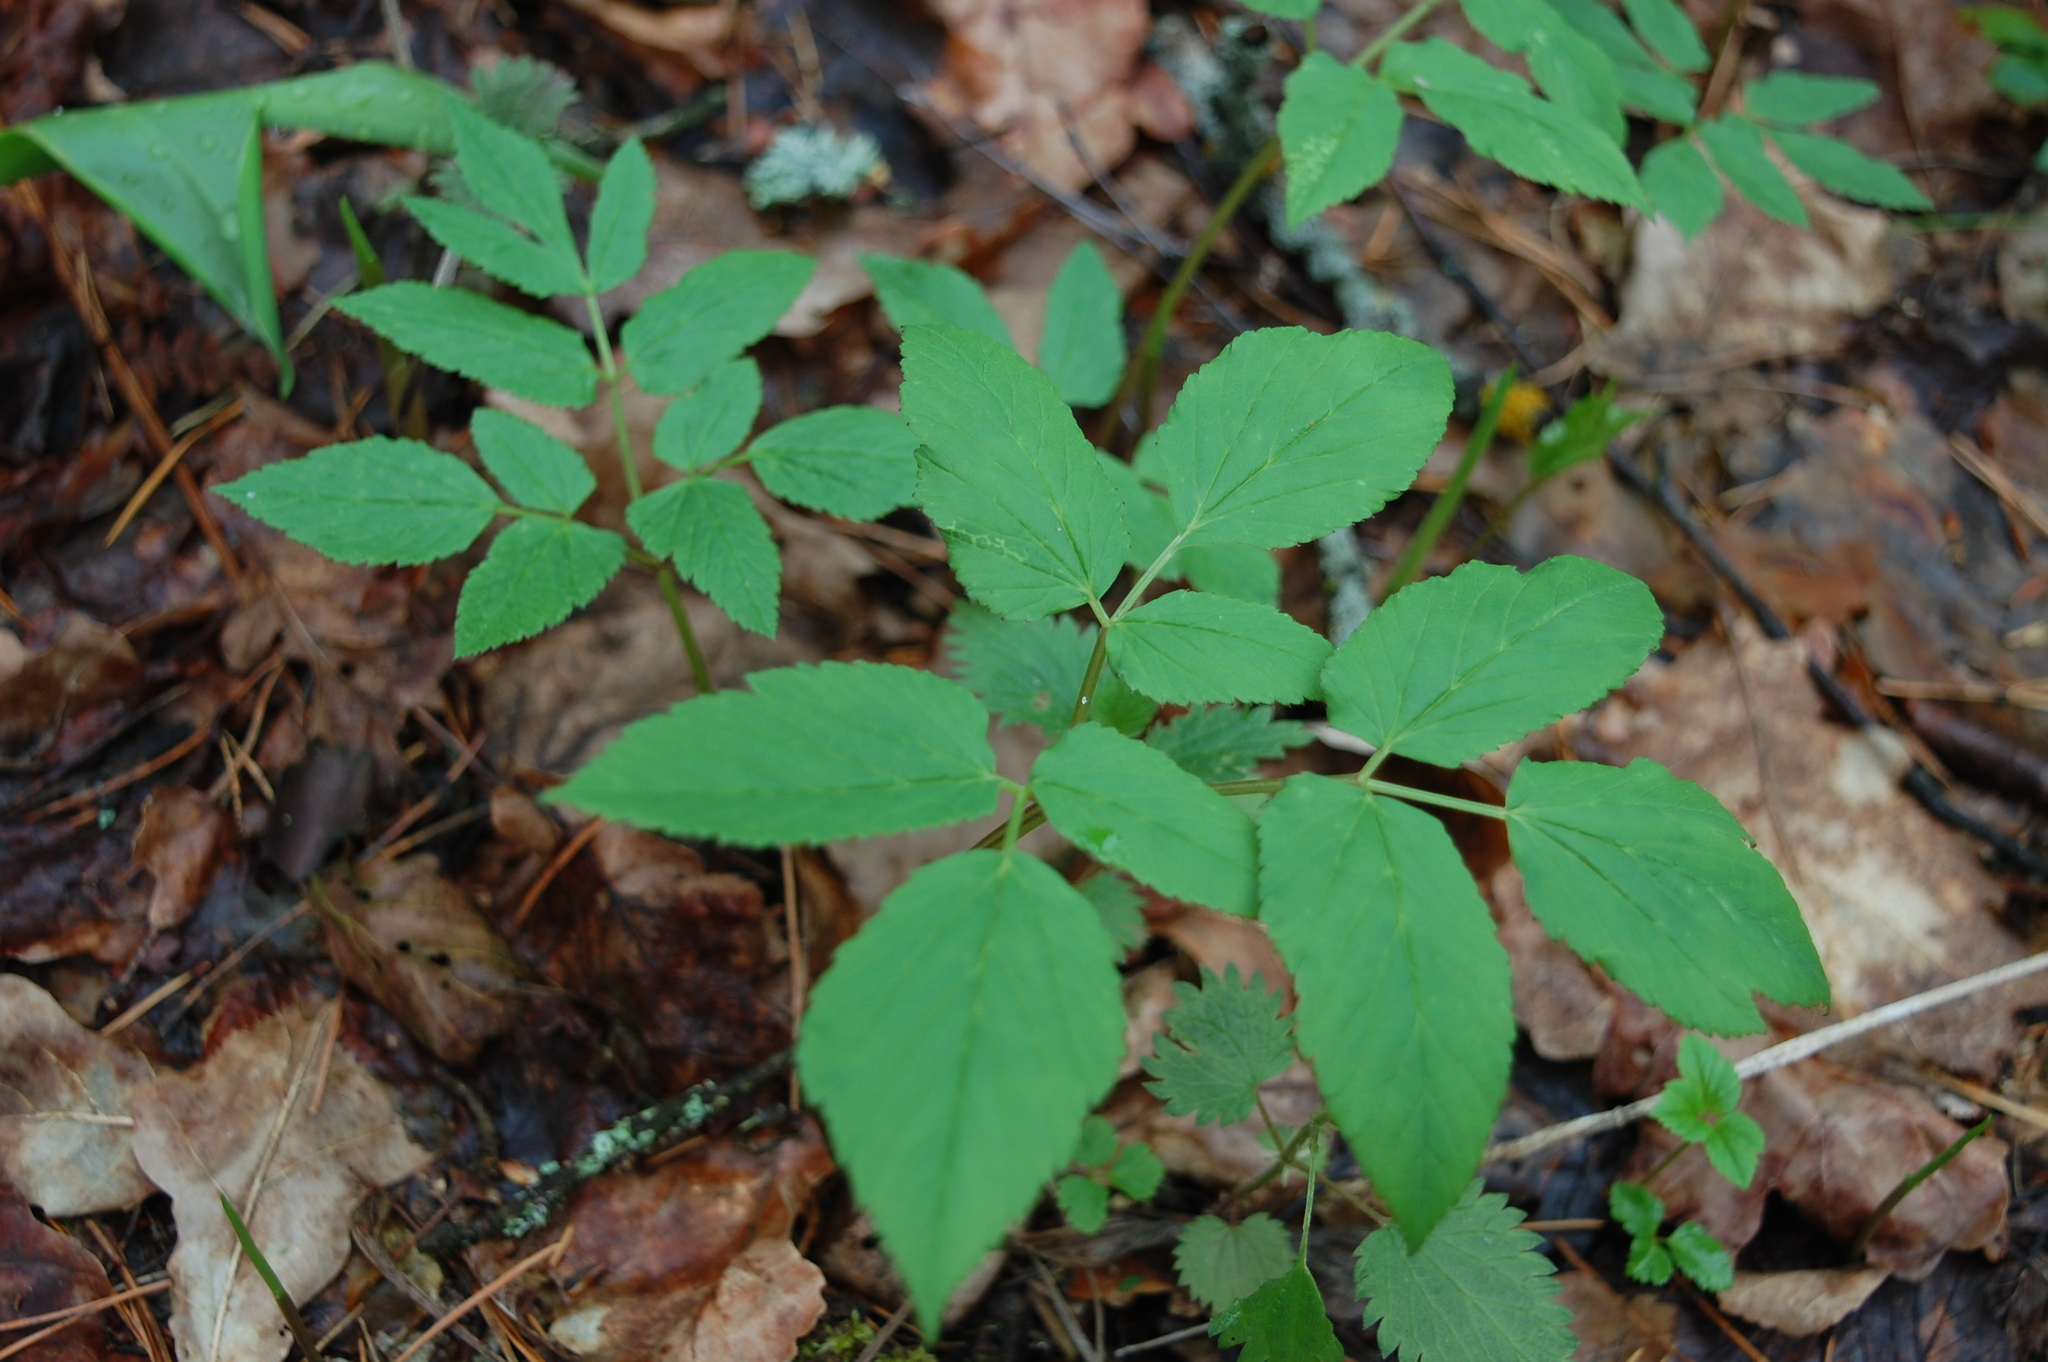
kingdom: Plantae
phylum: Tracheophyta
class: Magnoliopsida
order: Apiales
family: Apiaceae
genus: Aegopodium
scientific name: Aegopodium podagraria
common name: Ground-elder
